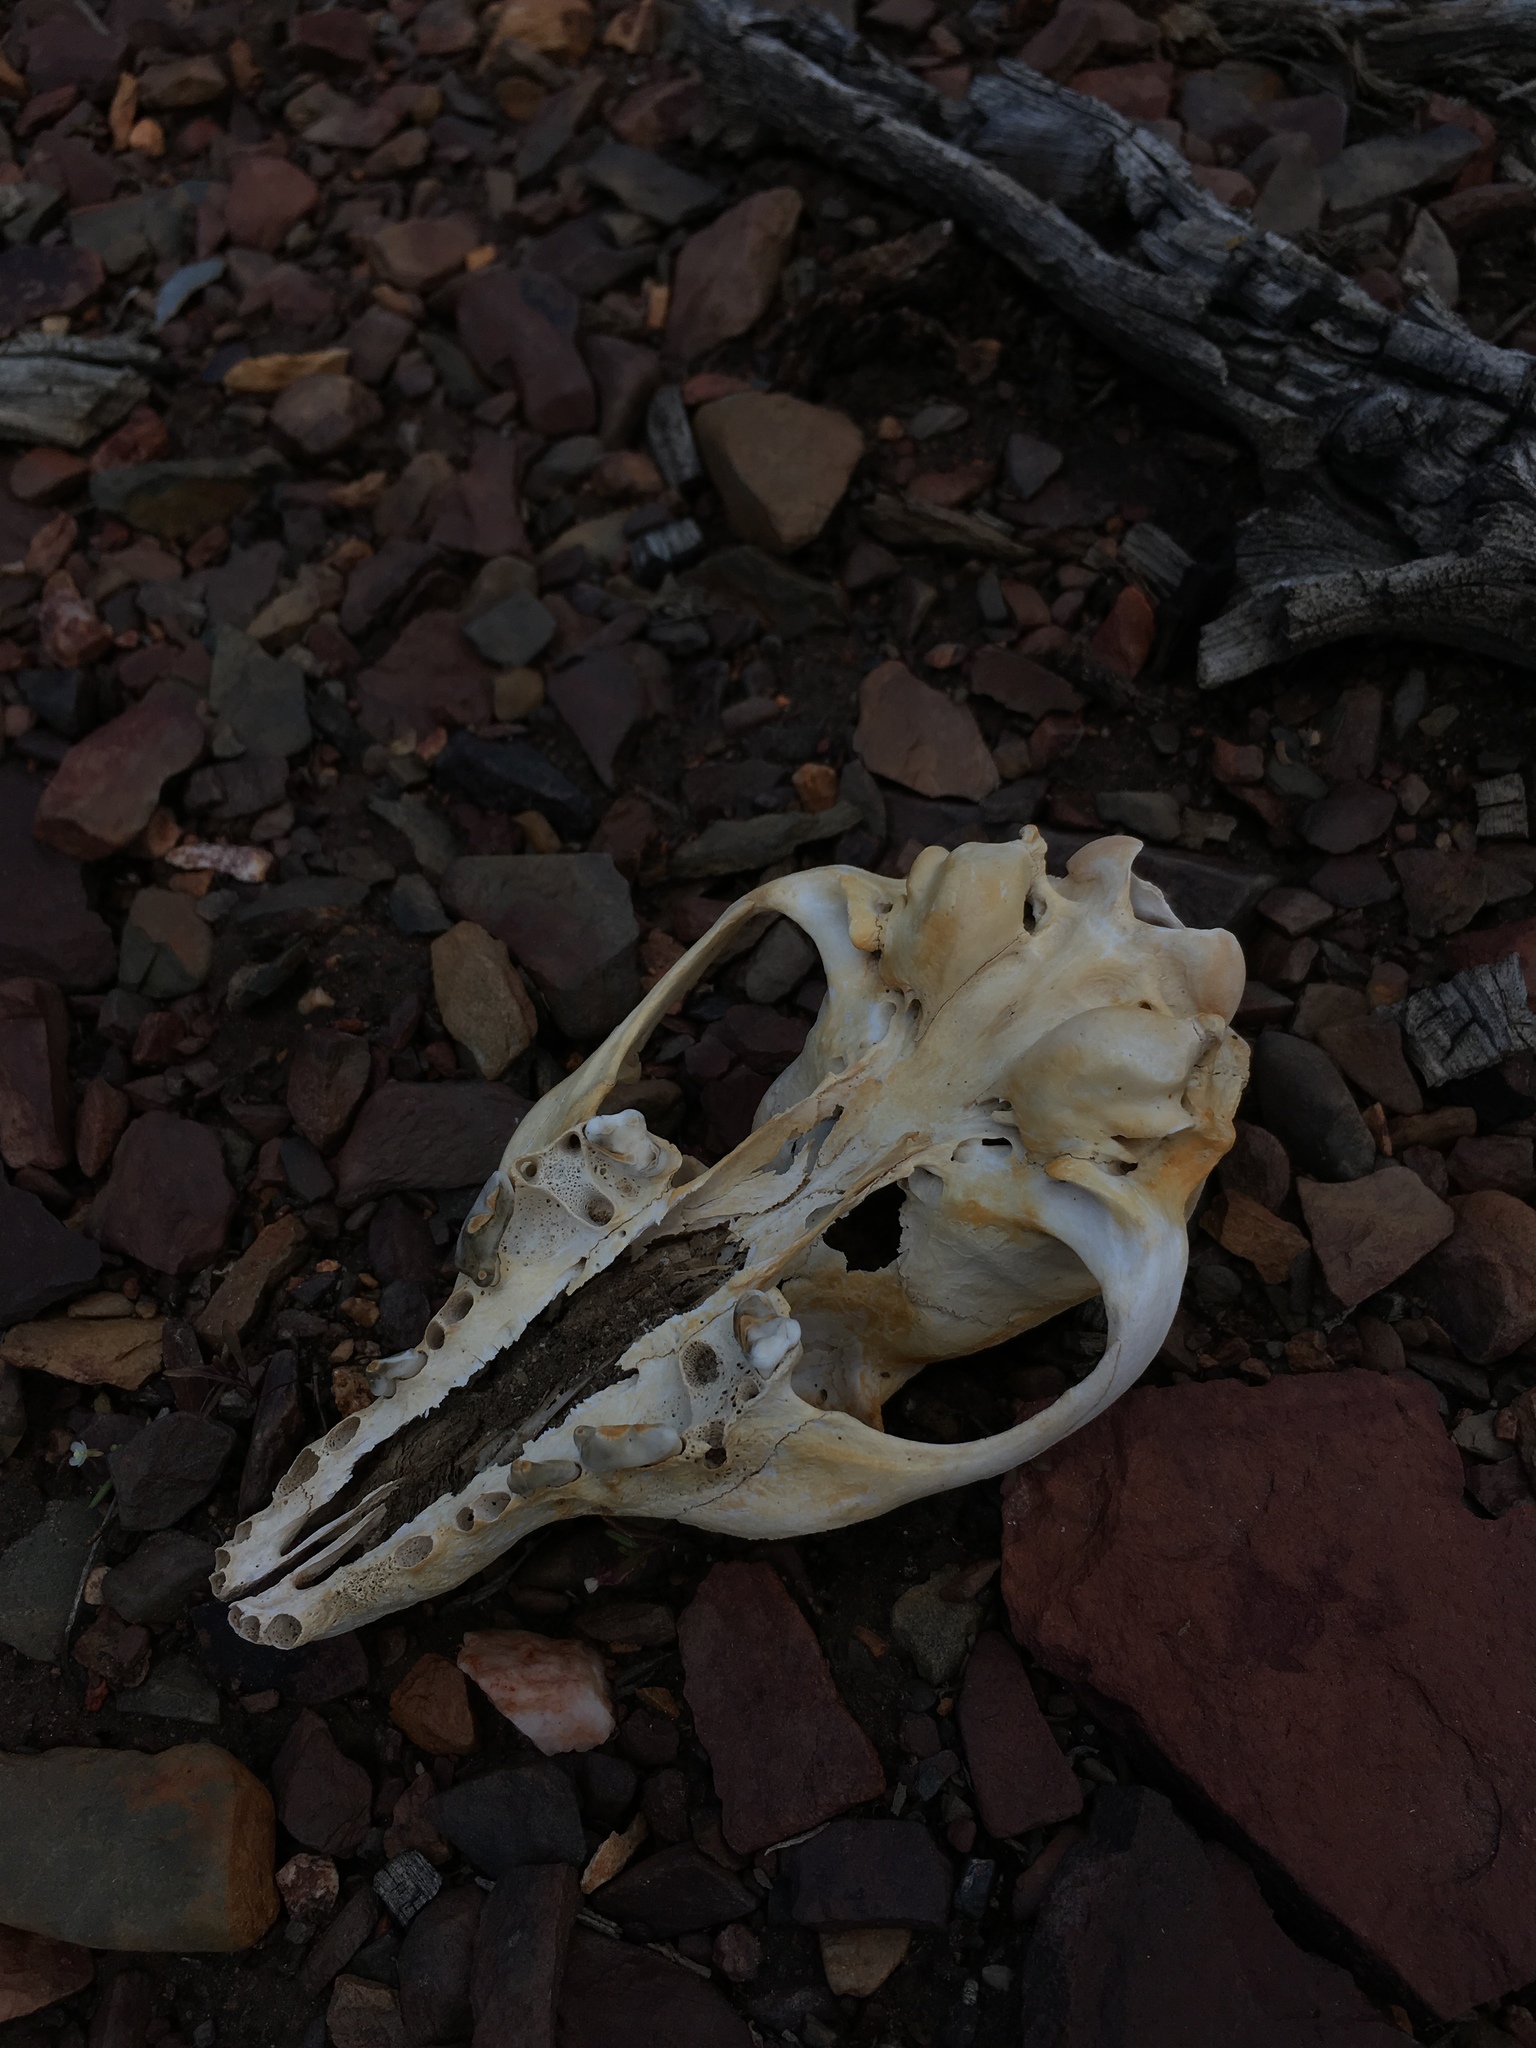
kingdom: Animalia
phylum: Chordata
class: Mammalia
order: Carnivora
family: Canidae
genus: Urocyon
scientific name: Urocyon cinereoargenteus
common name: Gray fox
